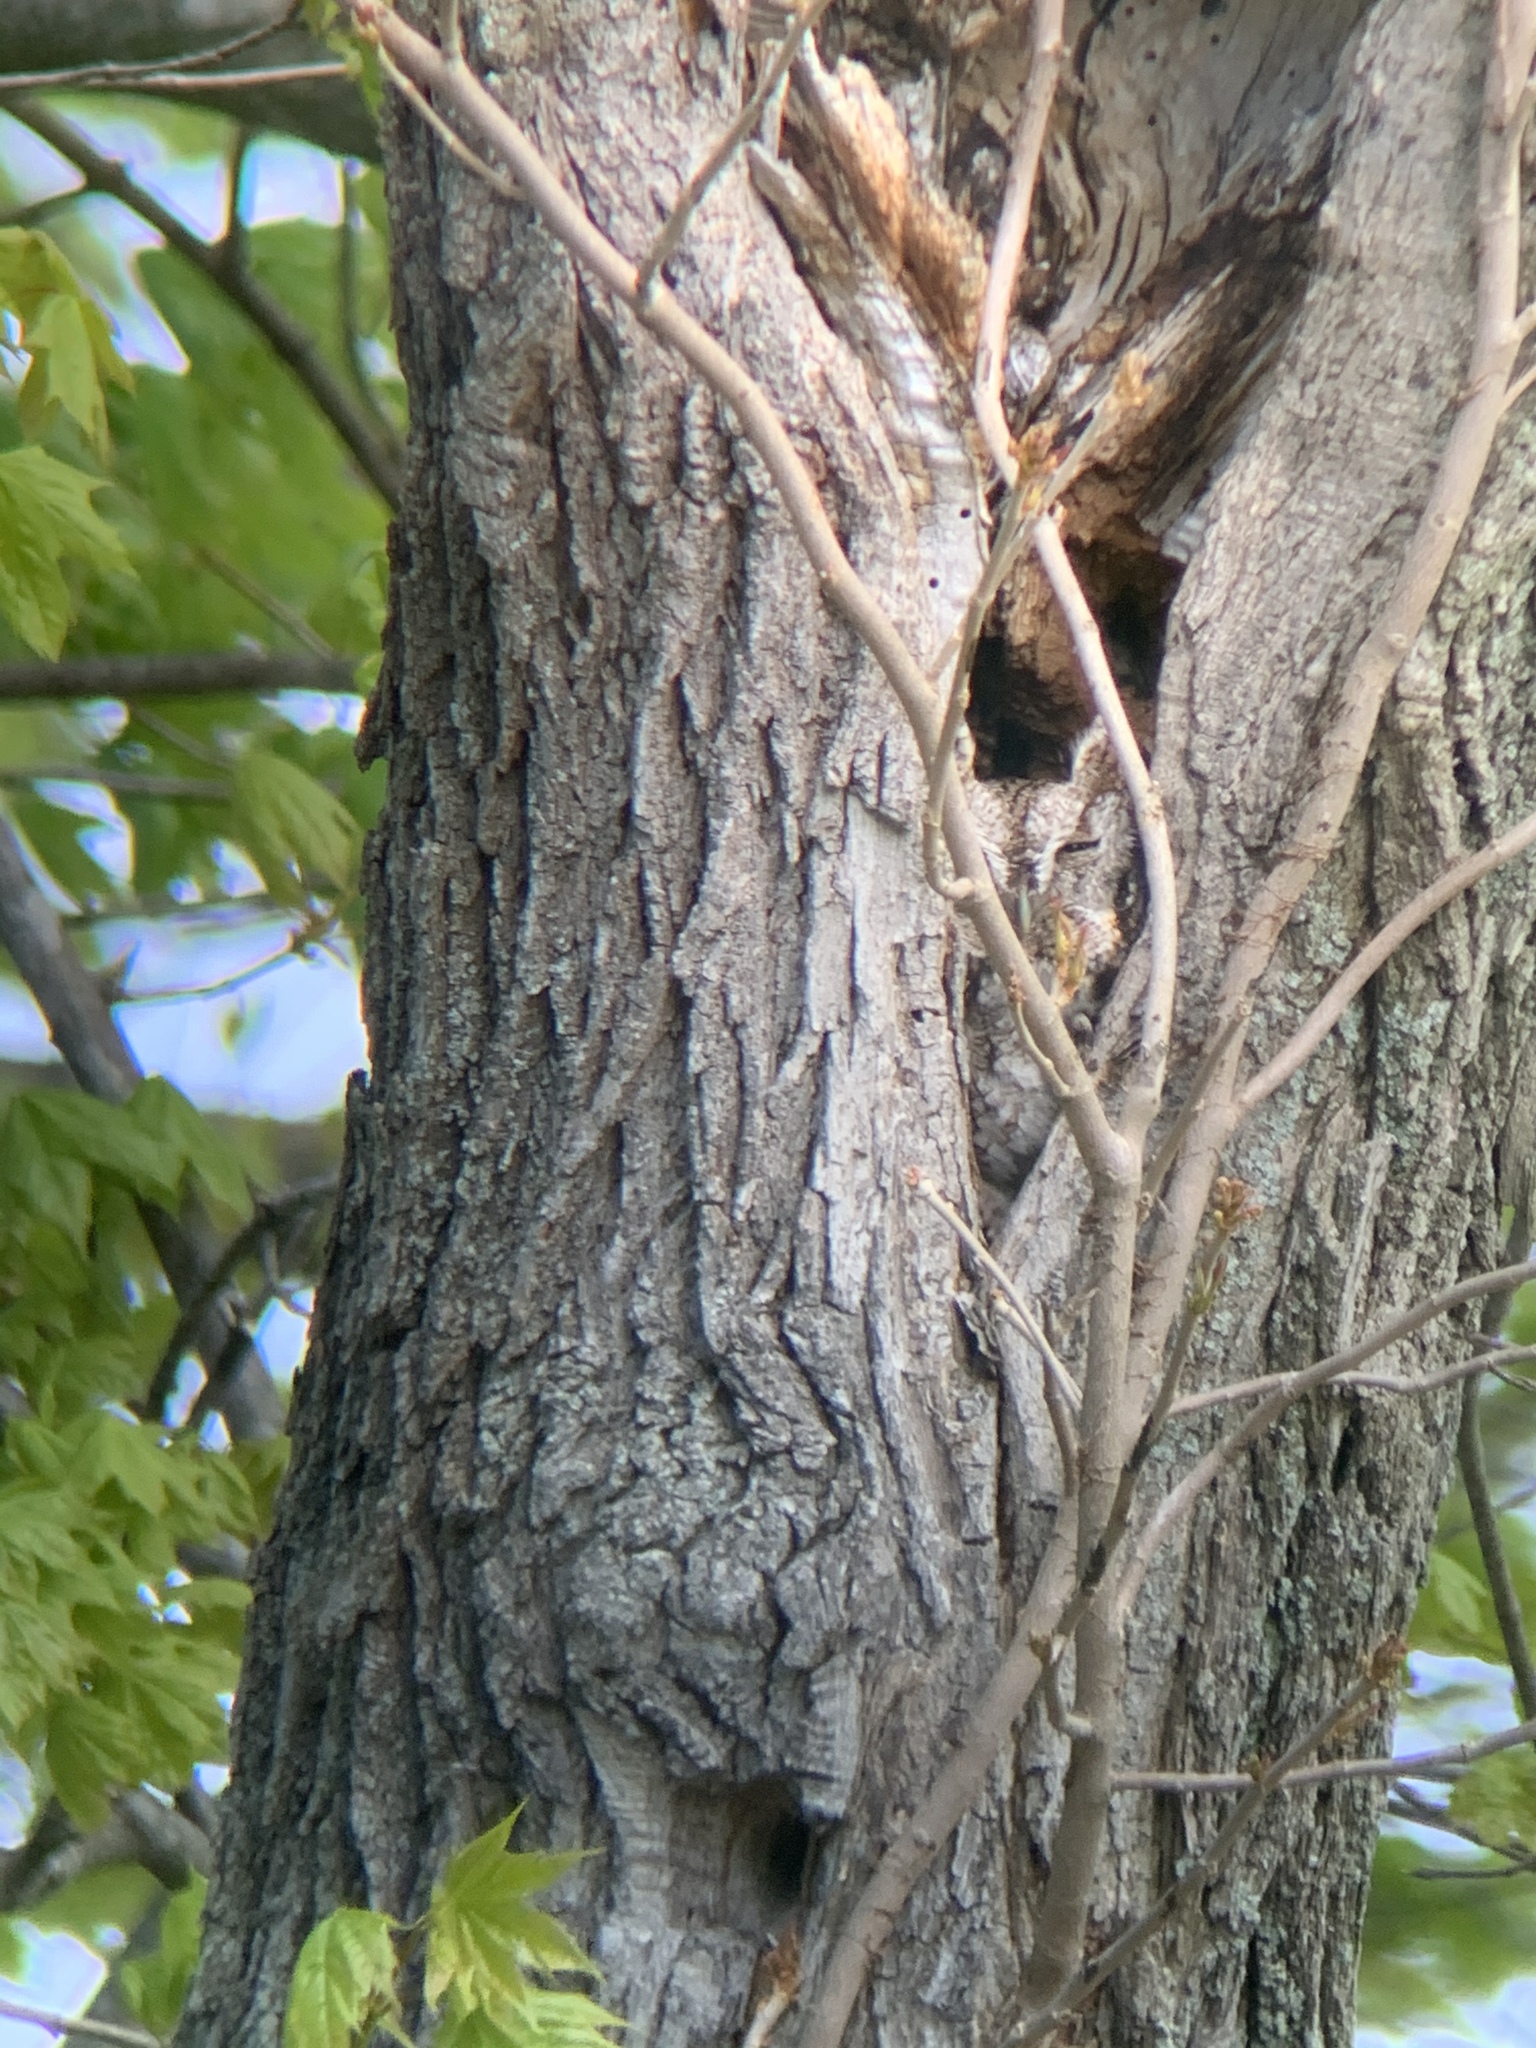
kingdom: Animalia
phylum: Chordata
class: Aves
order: Strigiformes
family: Strigidae
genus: Megascops
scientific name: Megascops asio
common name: Eastern screech-owl
